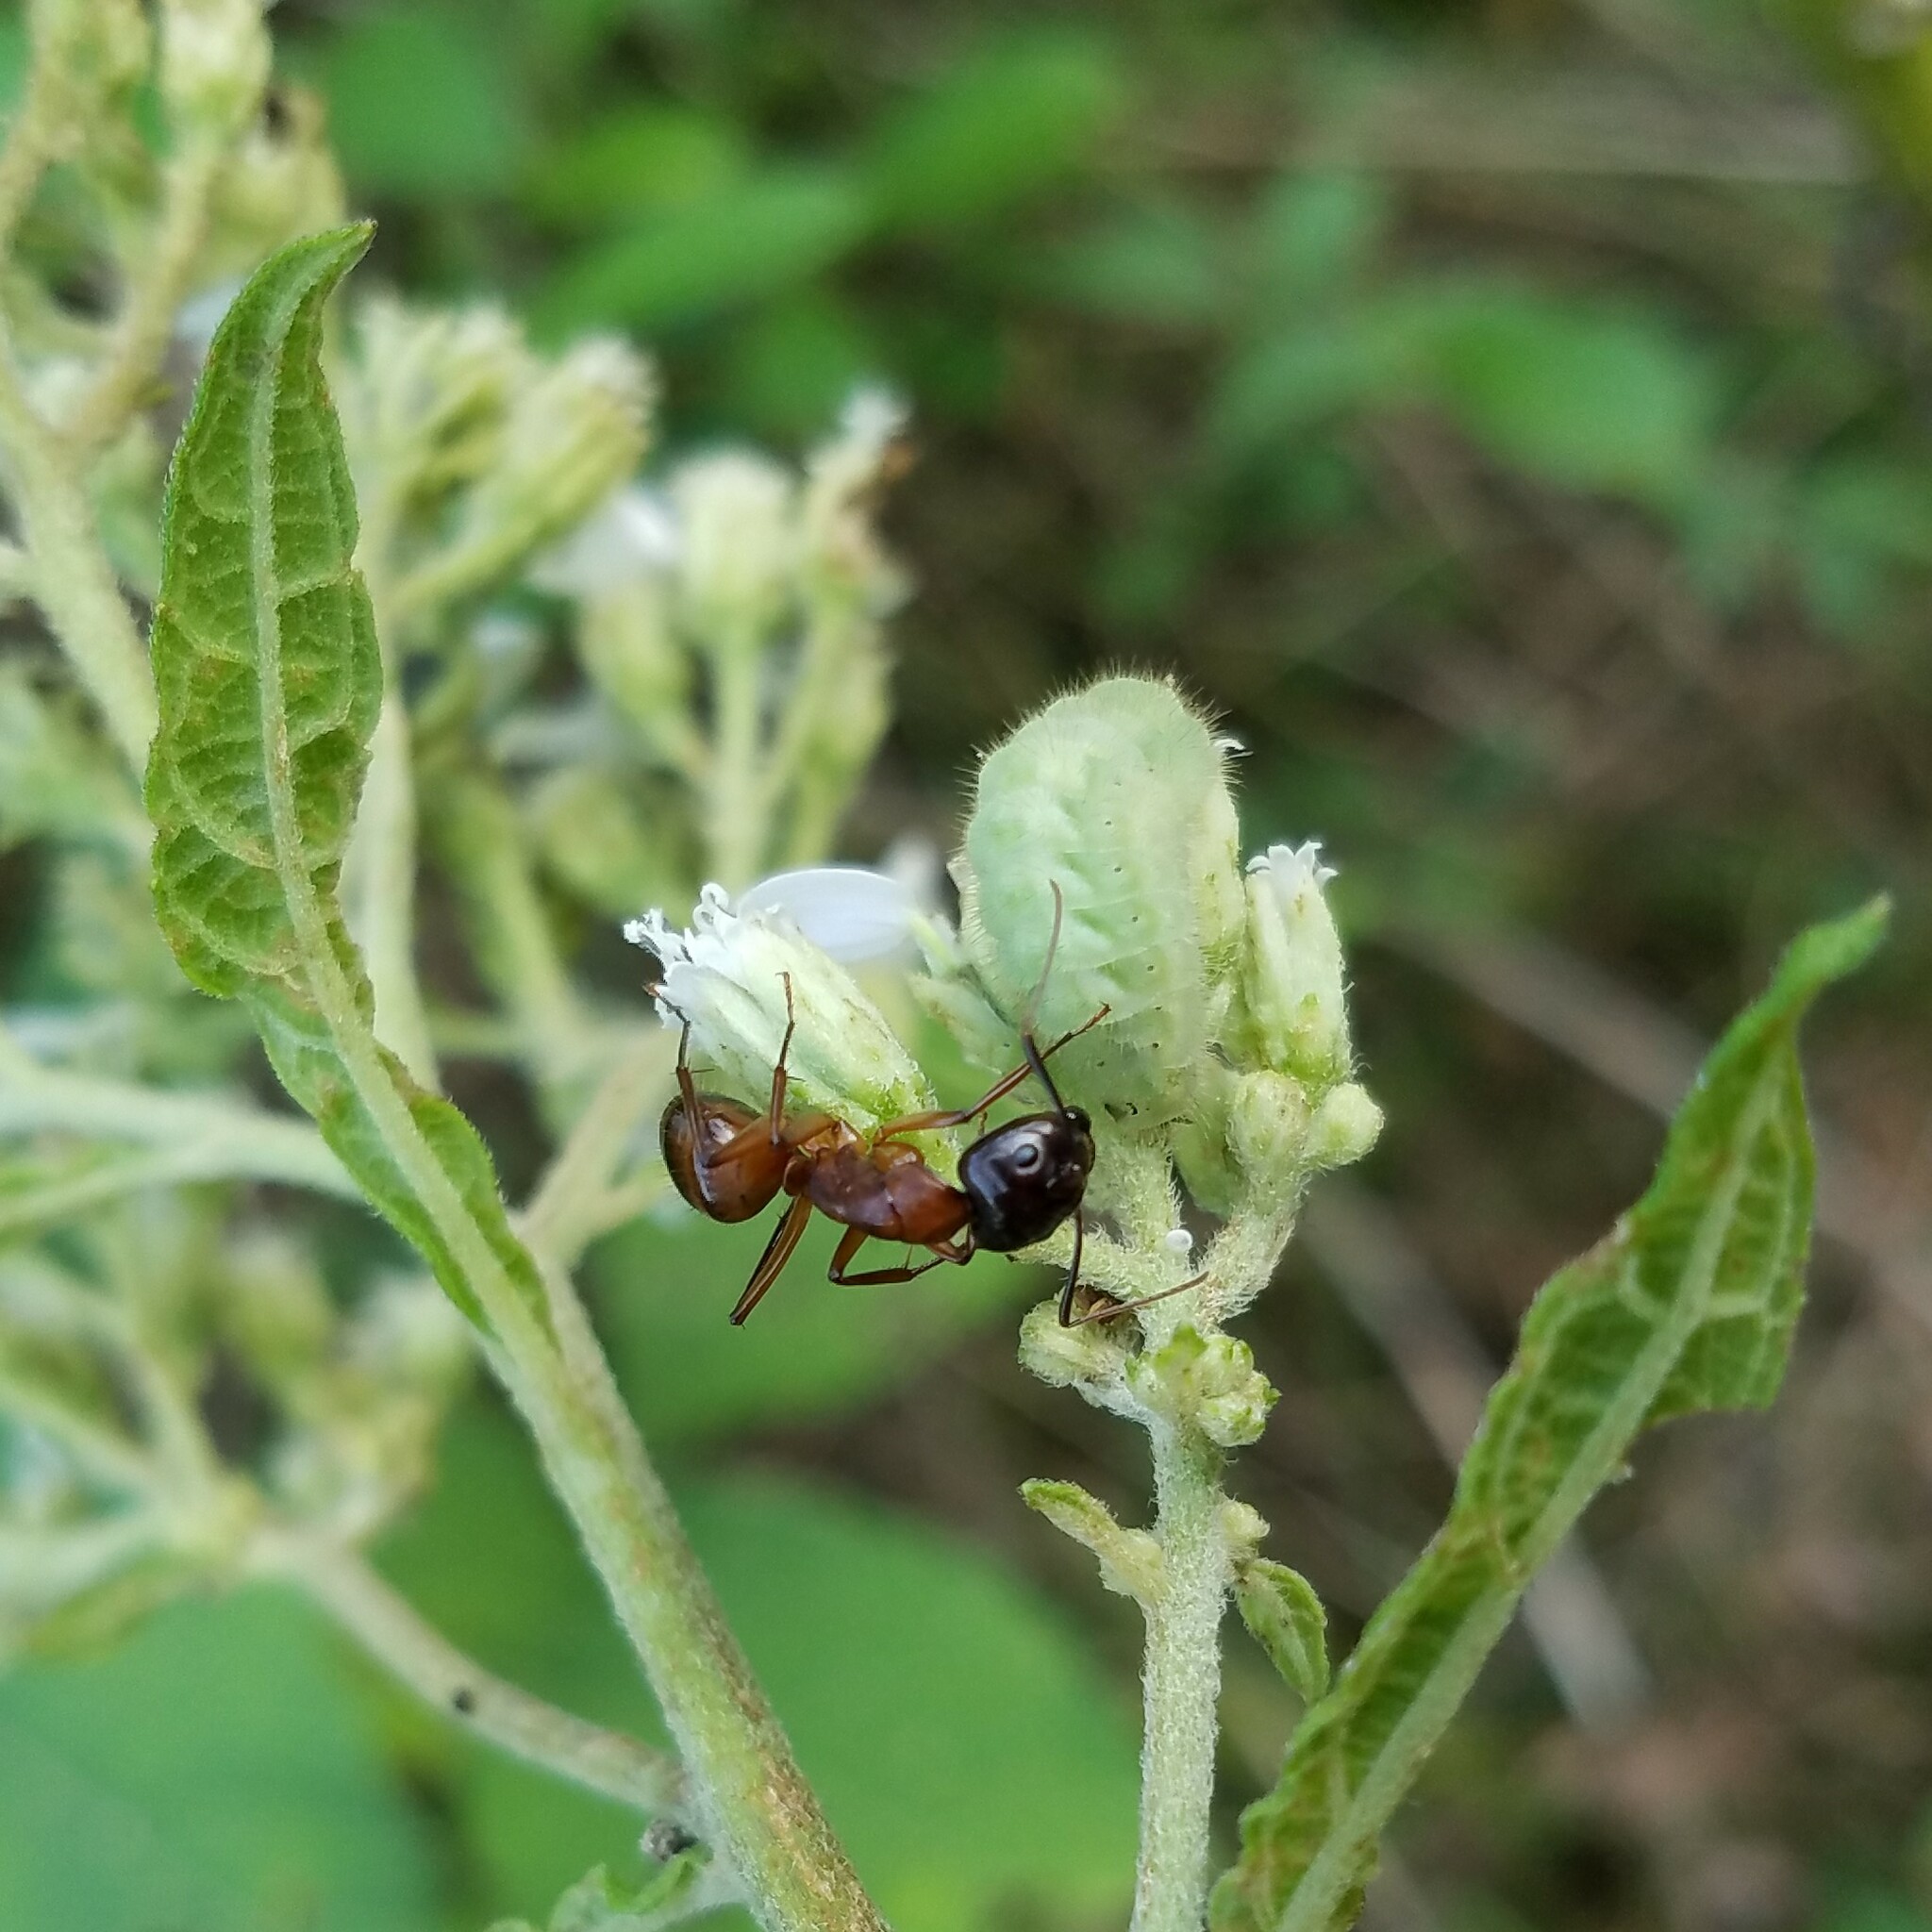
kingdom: Animalia
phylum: Arthropoda
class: Insecta
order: Hymenoptera
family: Formicidae
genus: Camponotus
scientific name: Camponotus americanus
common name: American carpenter ant
